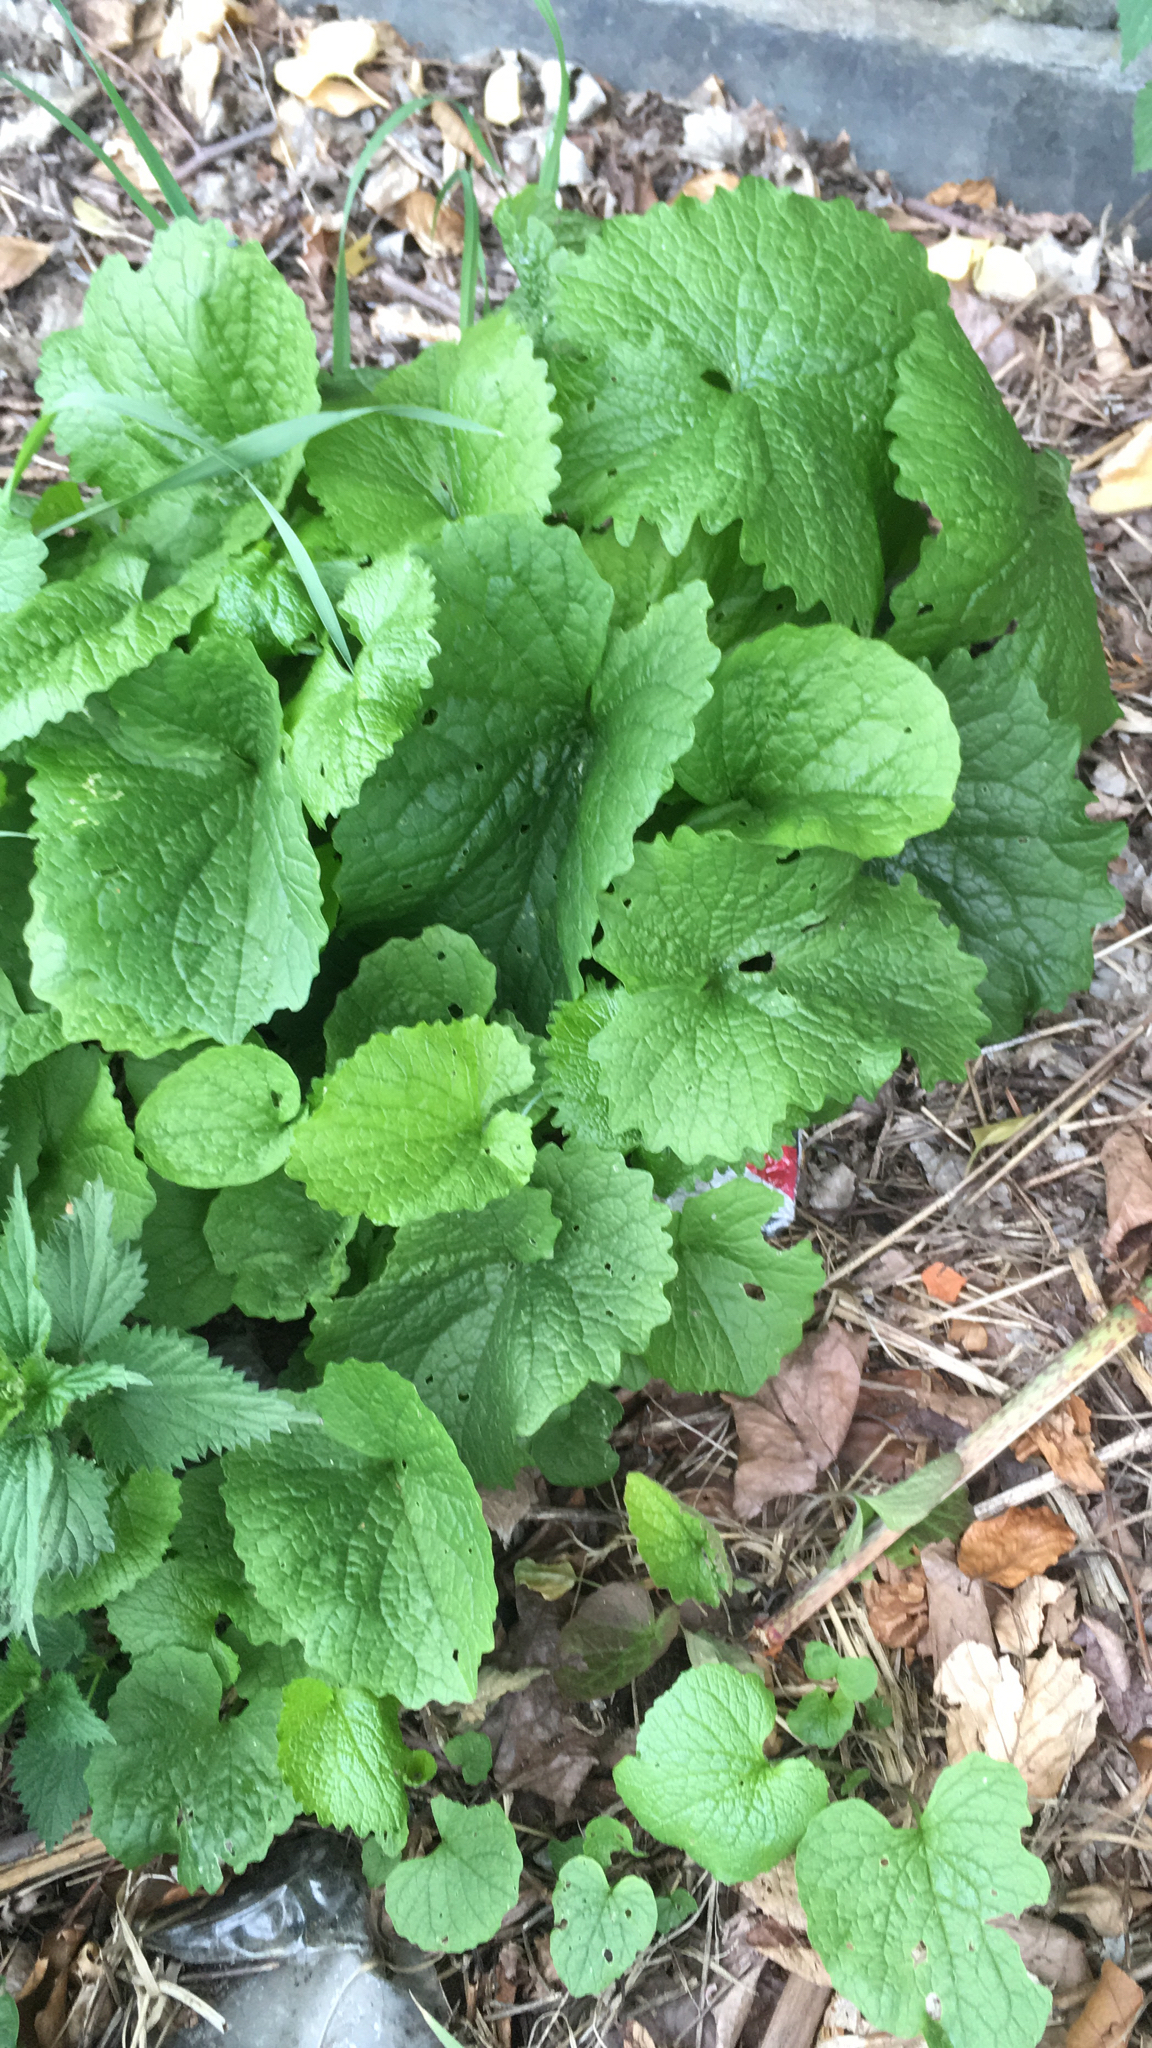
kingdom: Plantae
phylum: Tracheophyta
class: Magnoliopsida
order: Brassicales
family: Brassicaceae
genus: Alliaria
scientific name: Alliaria petiolata
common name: Garlic mustard
